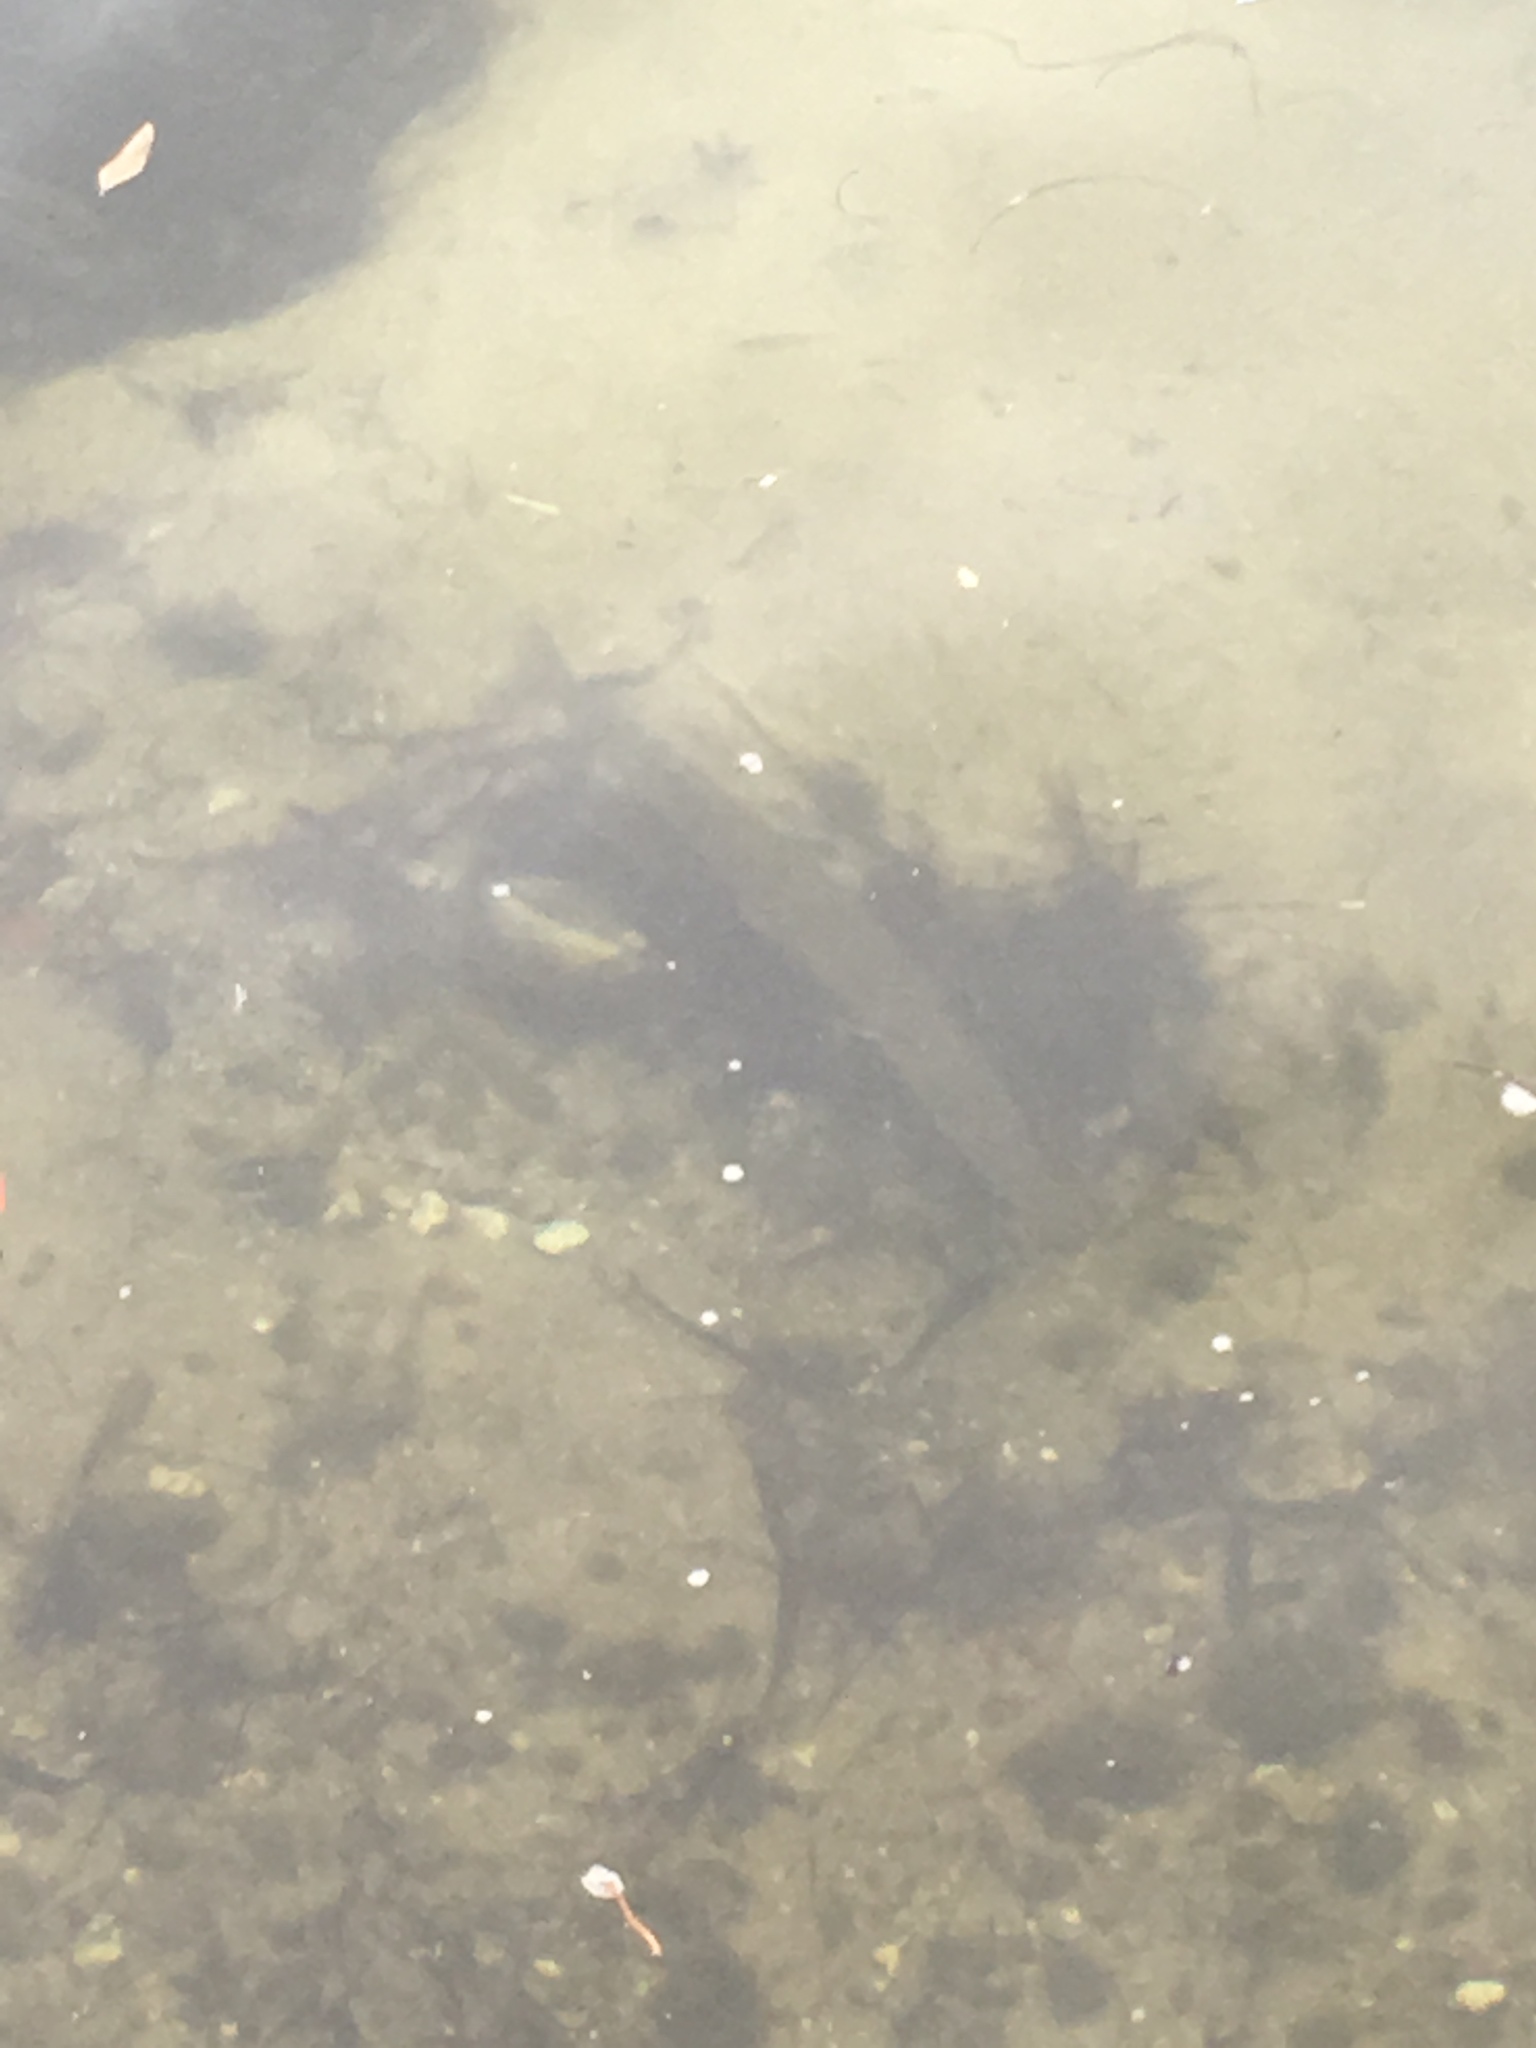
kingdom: Animalia
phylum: Chordata
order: Perciformes
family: Sphyraenidae
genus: Sphyraena
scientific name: Sphyraena barracuda
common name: Great barracuda
